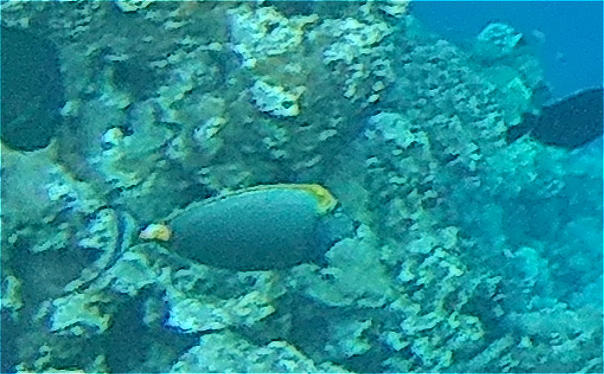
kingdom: Animalia
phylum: Chordata
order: Perciformes
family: Acanthuridae
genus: Naso
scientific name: Naso elegans
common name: Orangespine unicornfish
